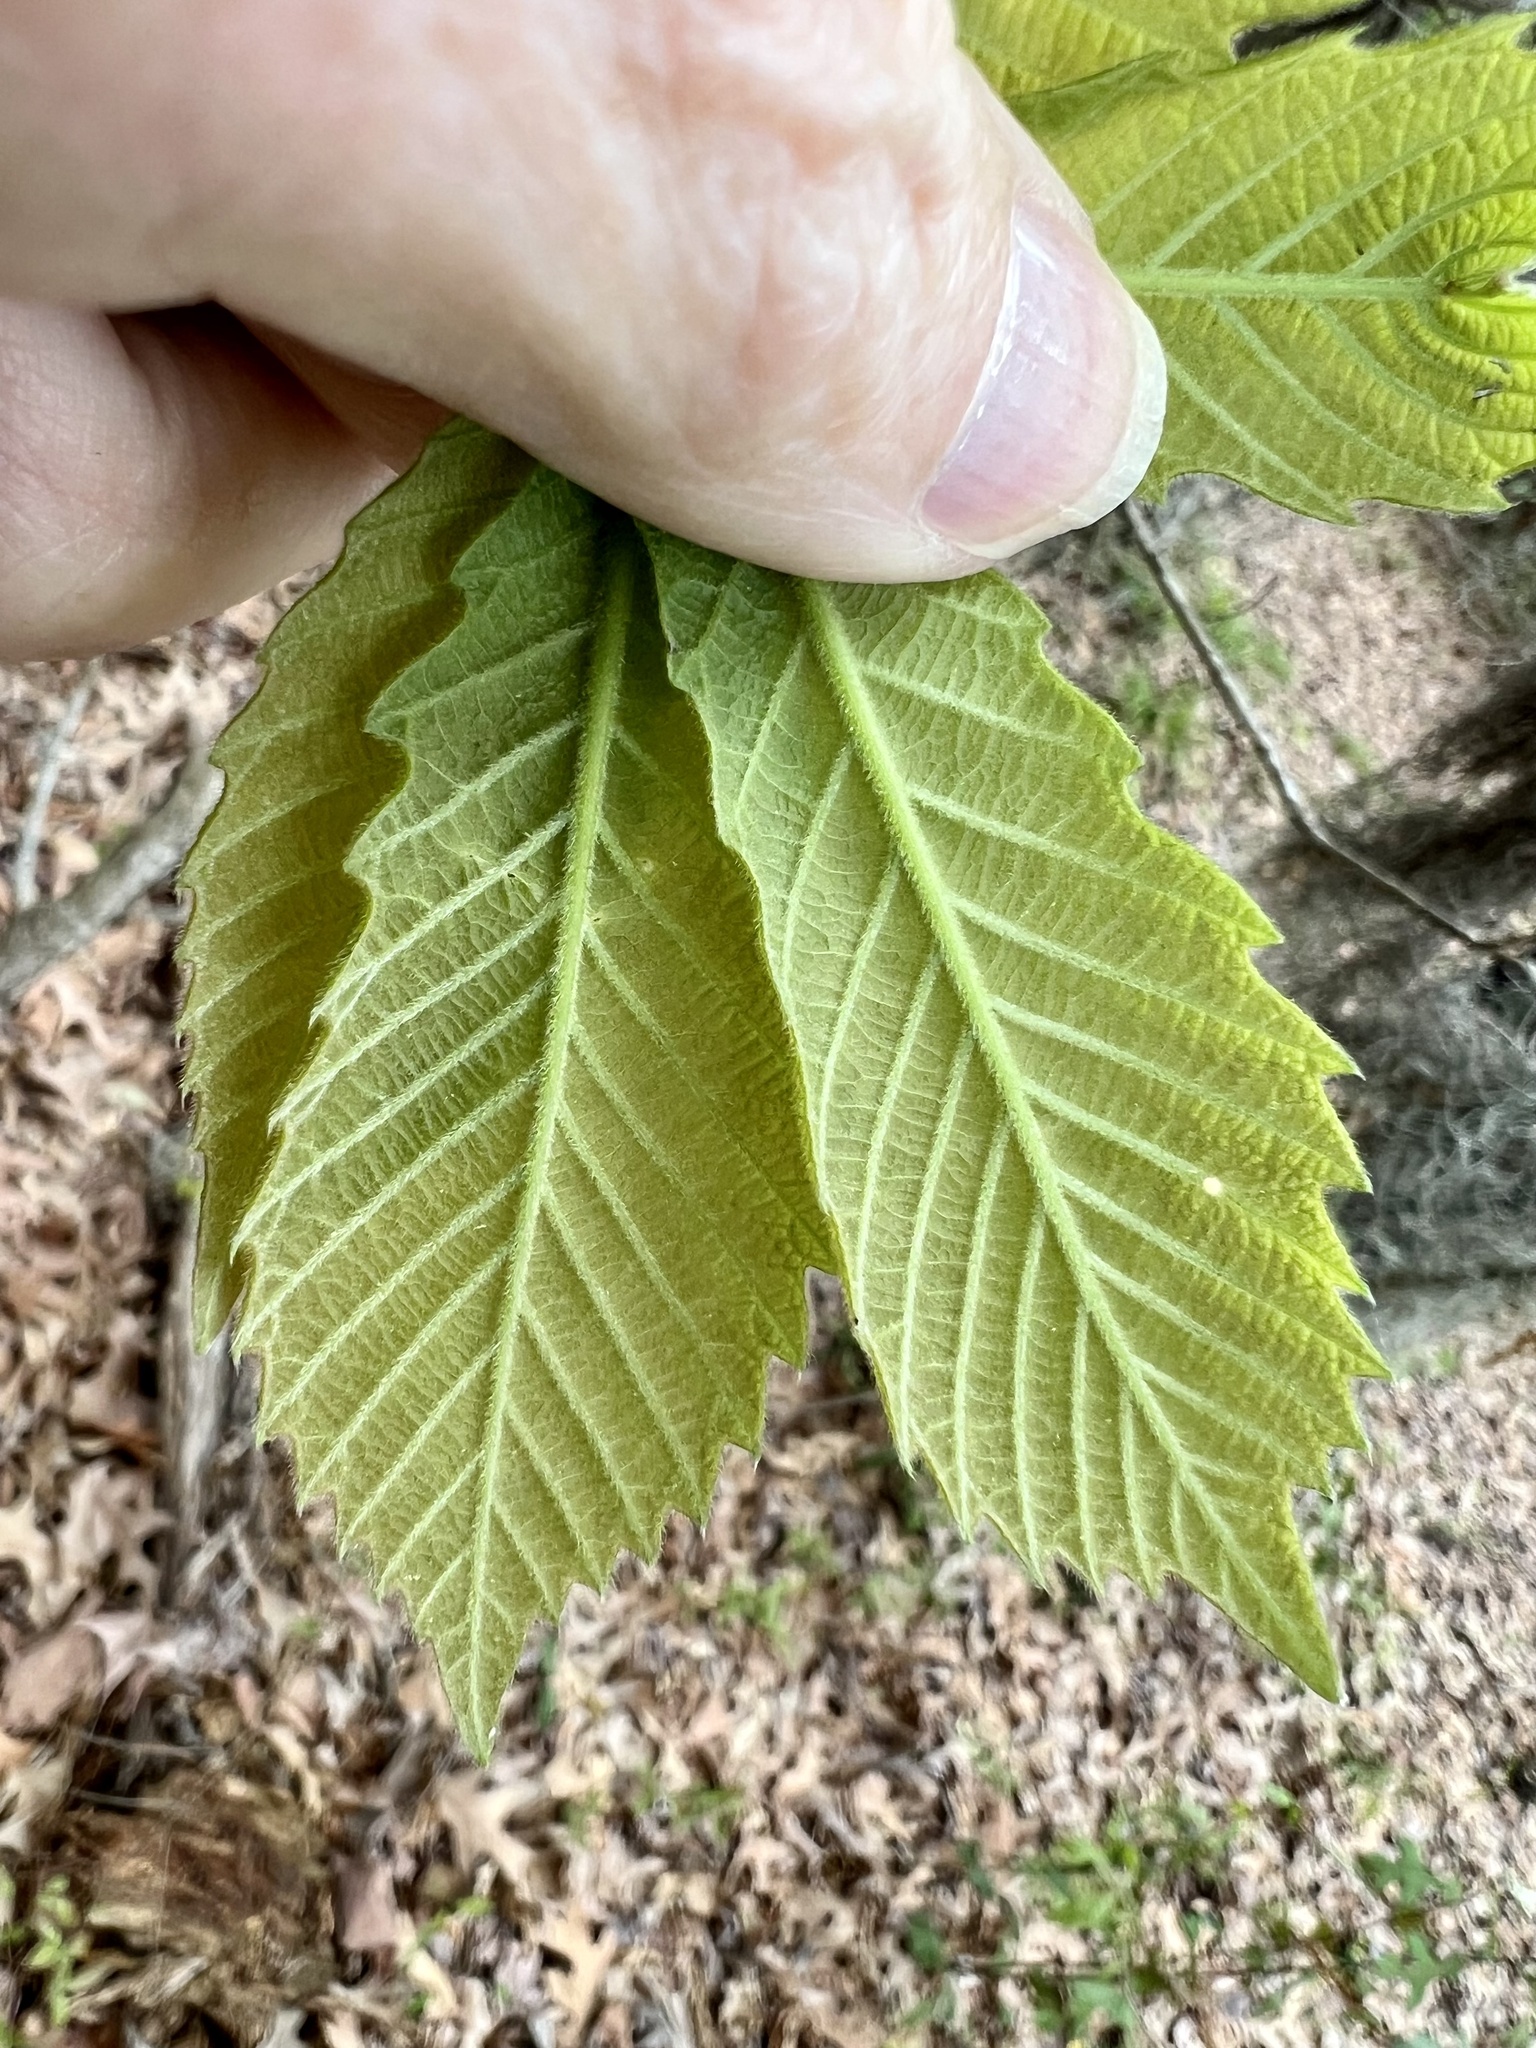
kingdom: Plantae
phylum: Tracheophyta
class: Magnoliopsida
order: Fagales
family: Fagaceae
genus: Quercus
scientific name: Quercus michauxii
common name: Swamp chestnut oak
